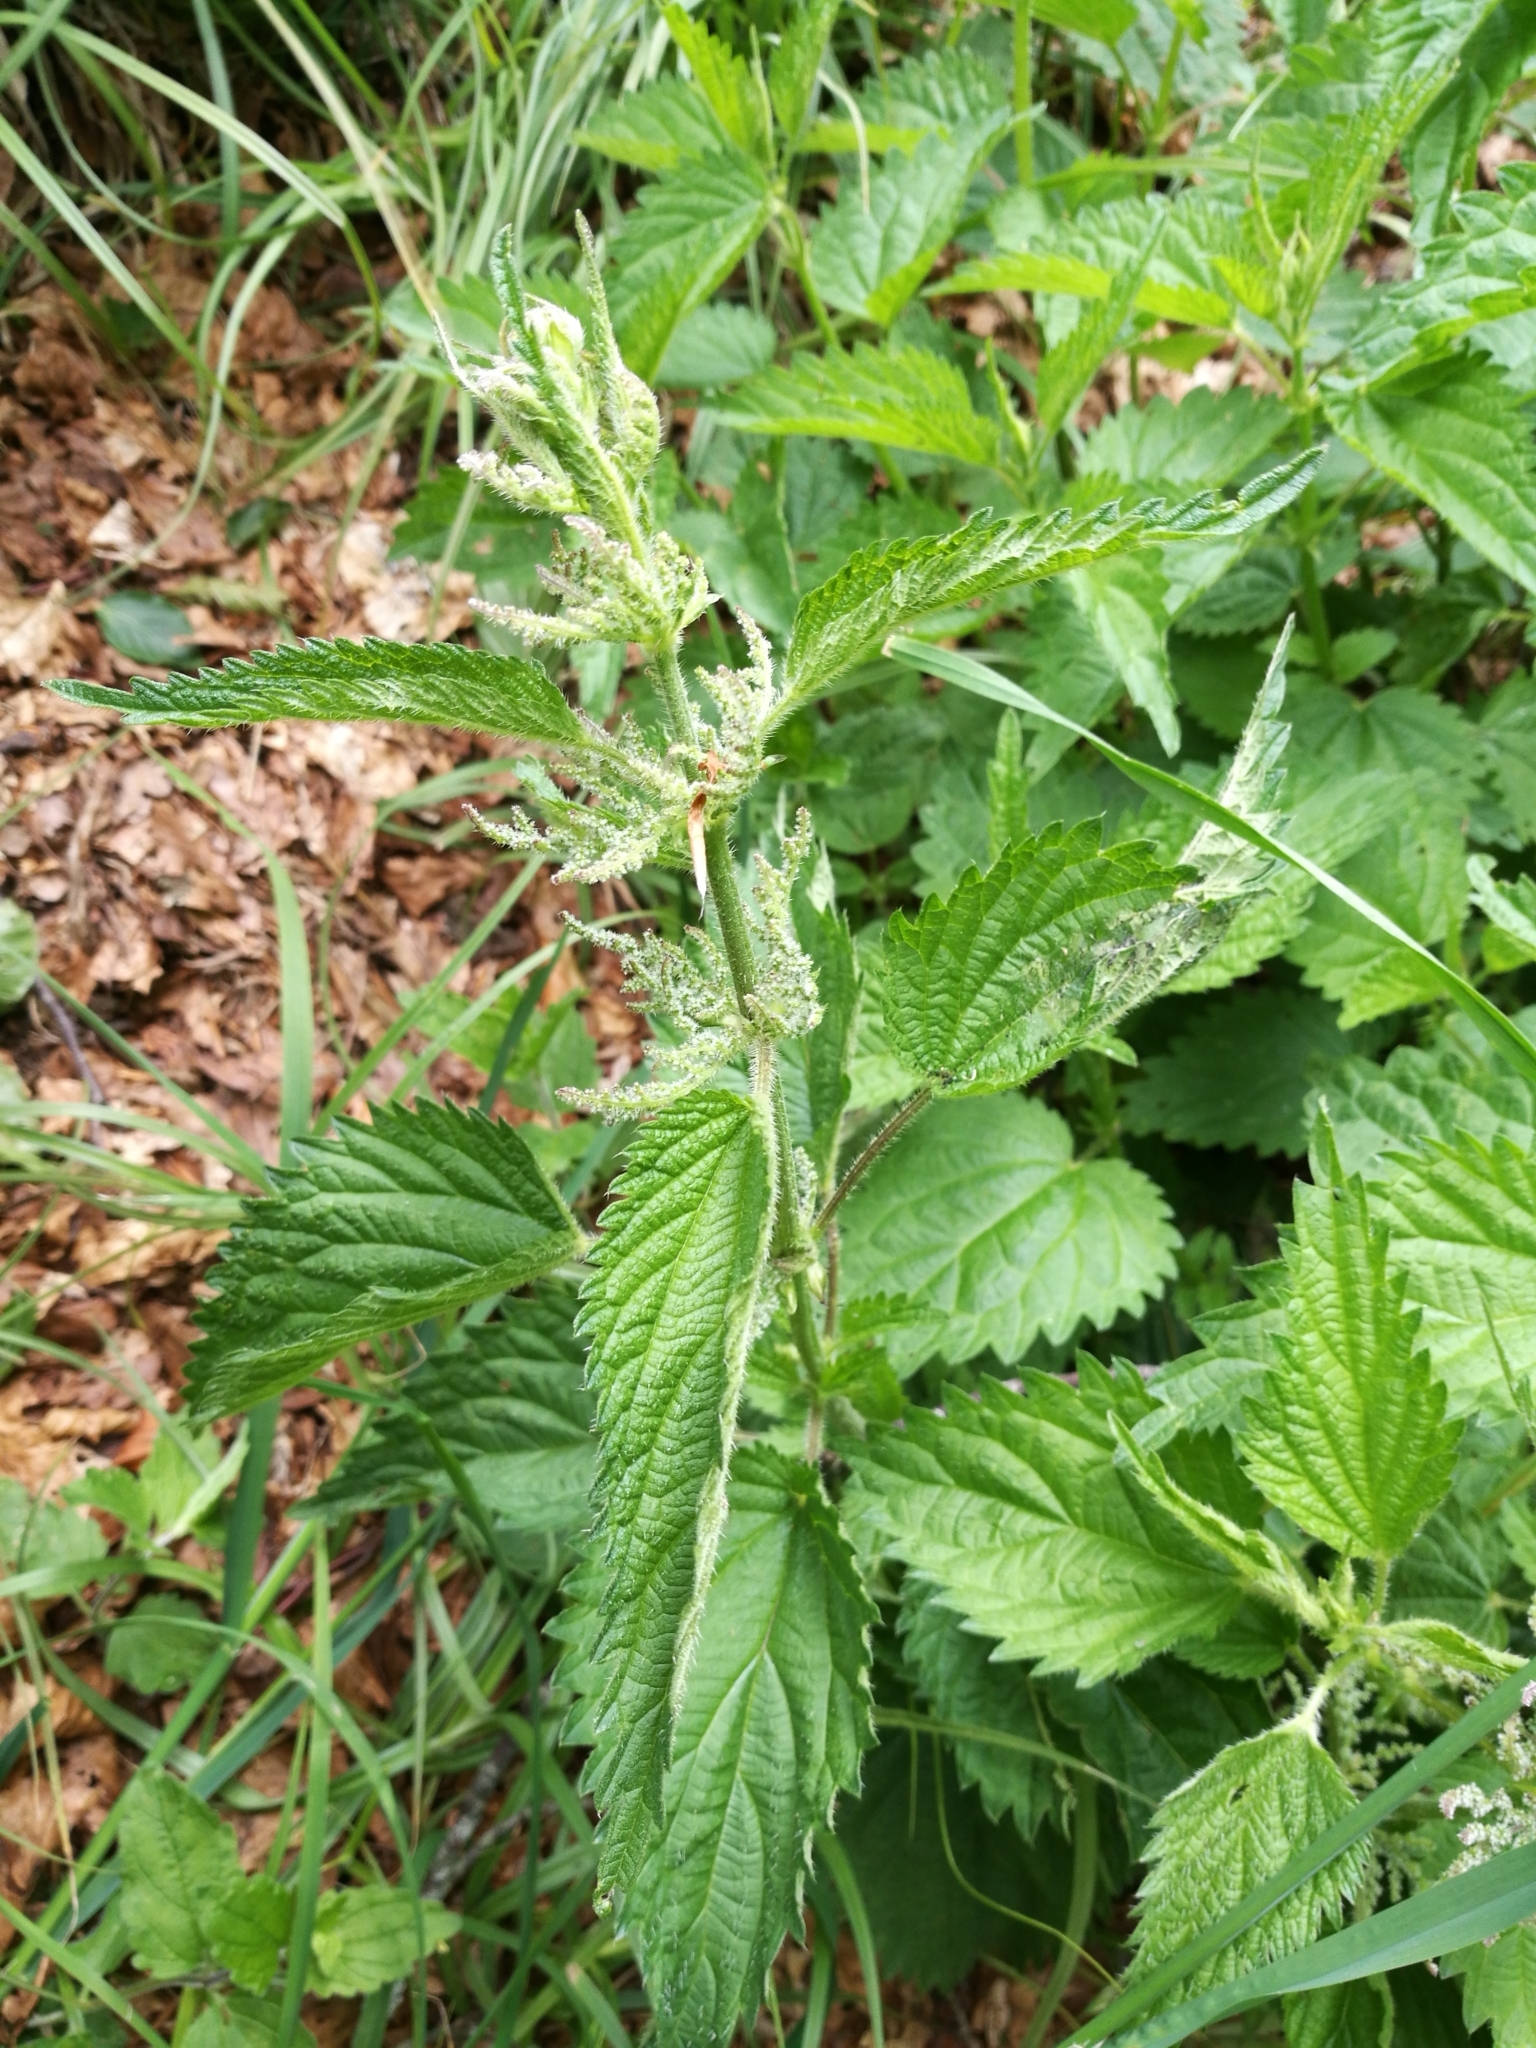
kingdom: Animalia
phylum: Arthropoda
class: Insecta
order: Lepidoptera
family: Nymphalidae
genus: Vanessa
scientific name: Vanessa atalanta
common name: Red admiral
